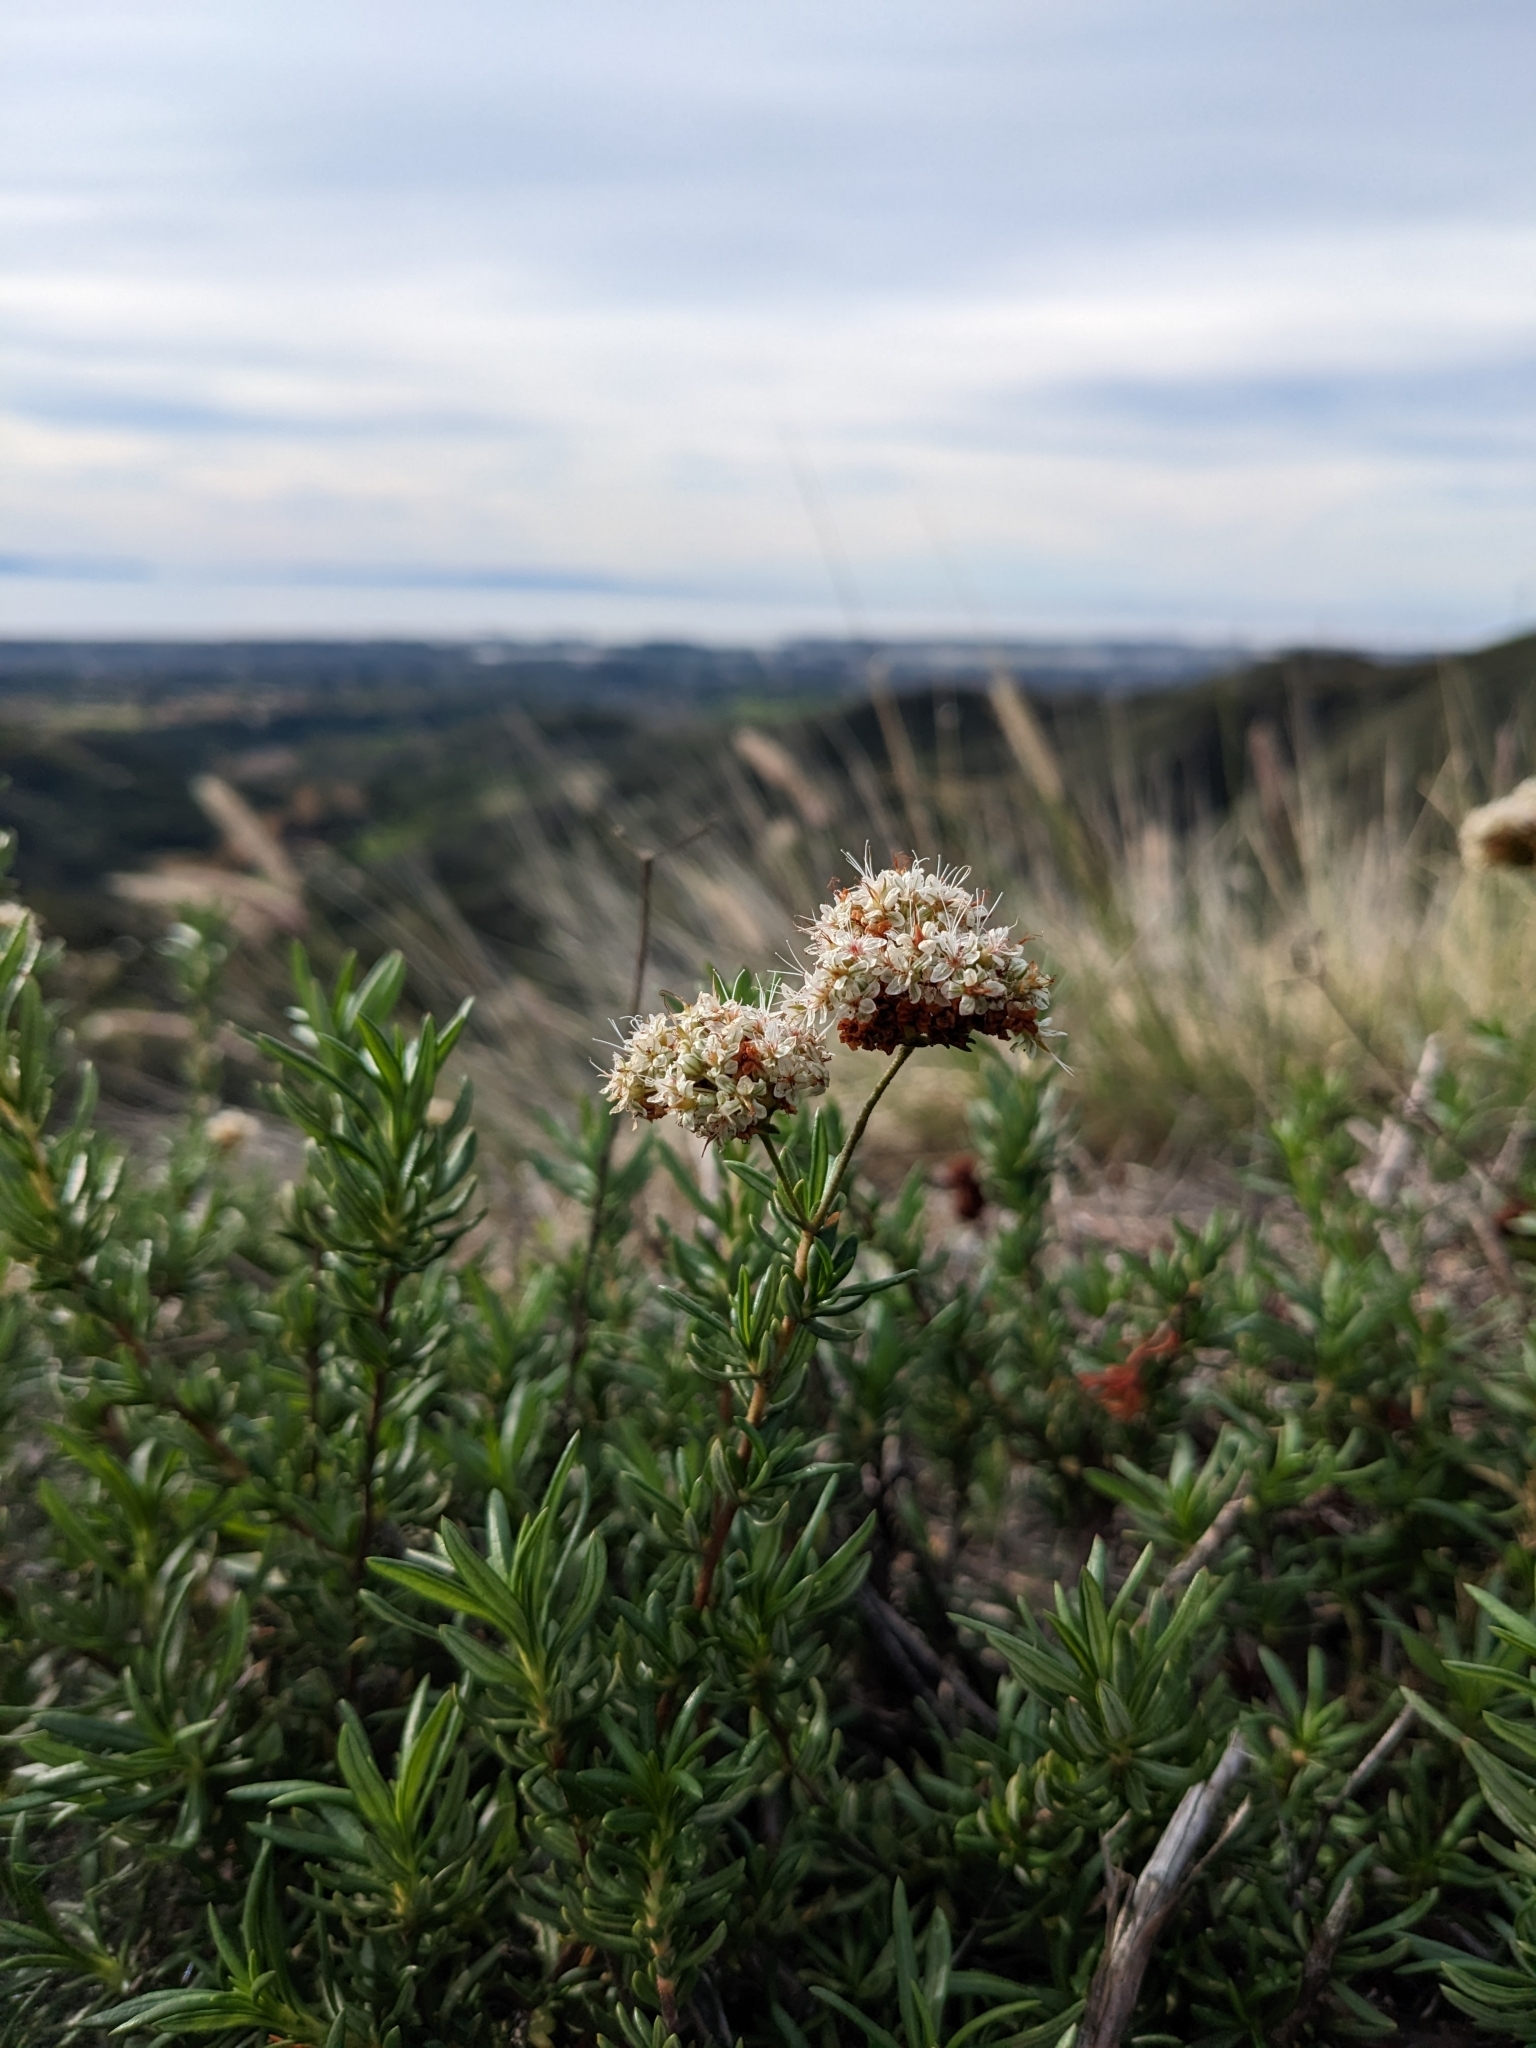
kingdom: Plantae
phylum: Tracheophyta
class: Magnoliopsida
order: Caryophyllales
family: Polygonaceae
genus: Eriogonum
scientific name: Eriogonum fasciculatum
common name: California wild buckwheat
